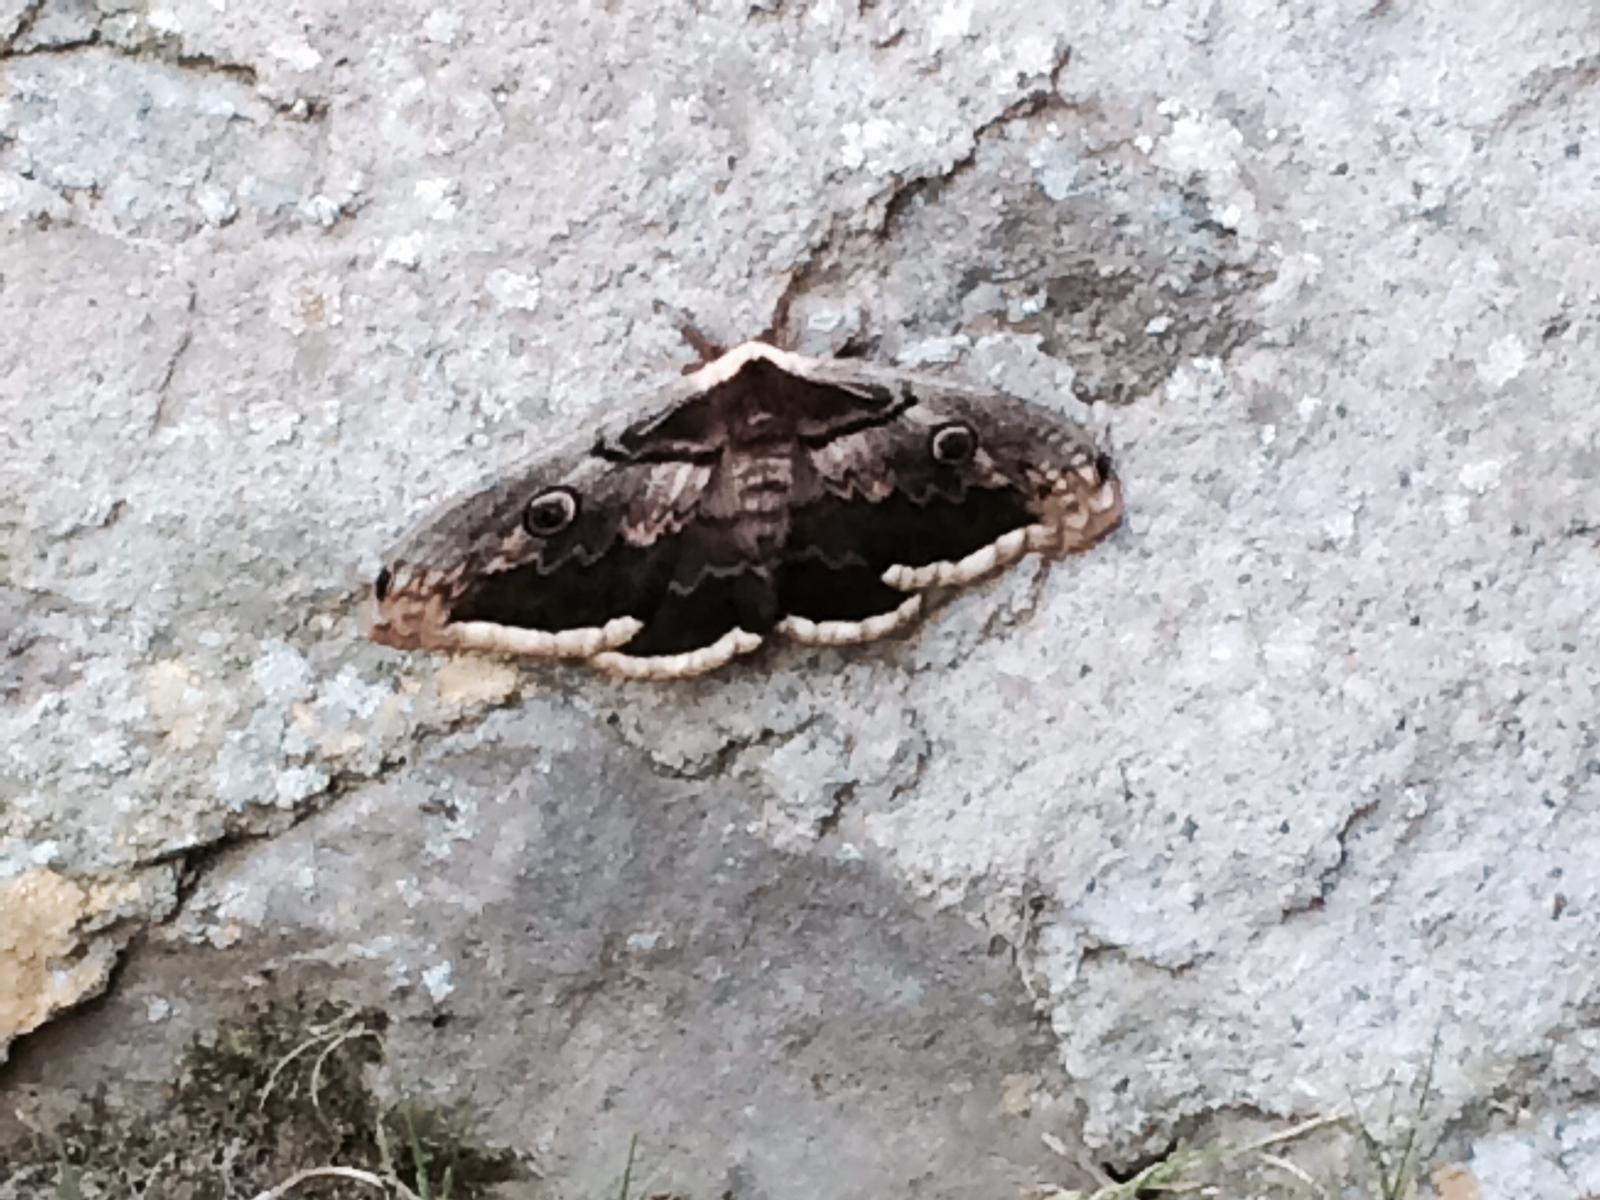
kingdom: Animalia
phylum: Arthropoda
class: Insecta
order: Lepidoptera
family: Saturniidae
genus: Saturnia
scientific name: Saturnia pyri
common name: Great peacock moth
